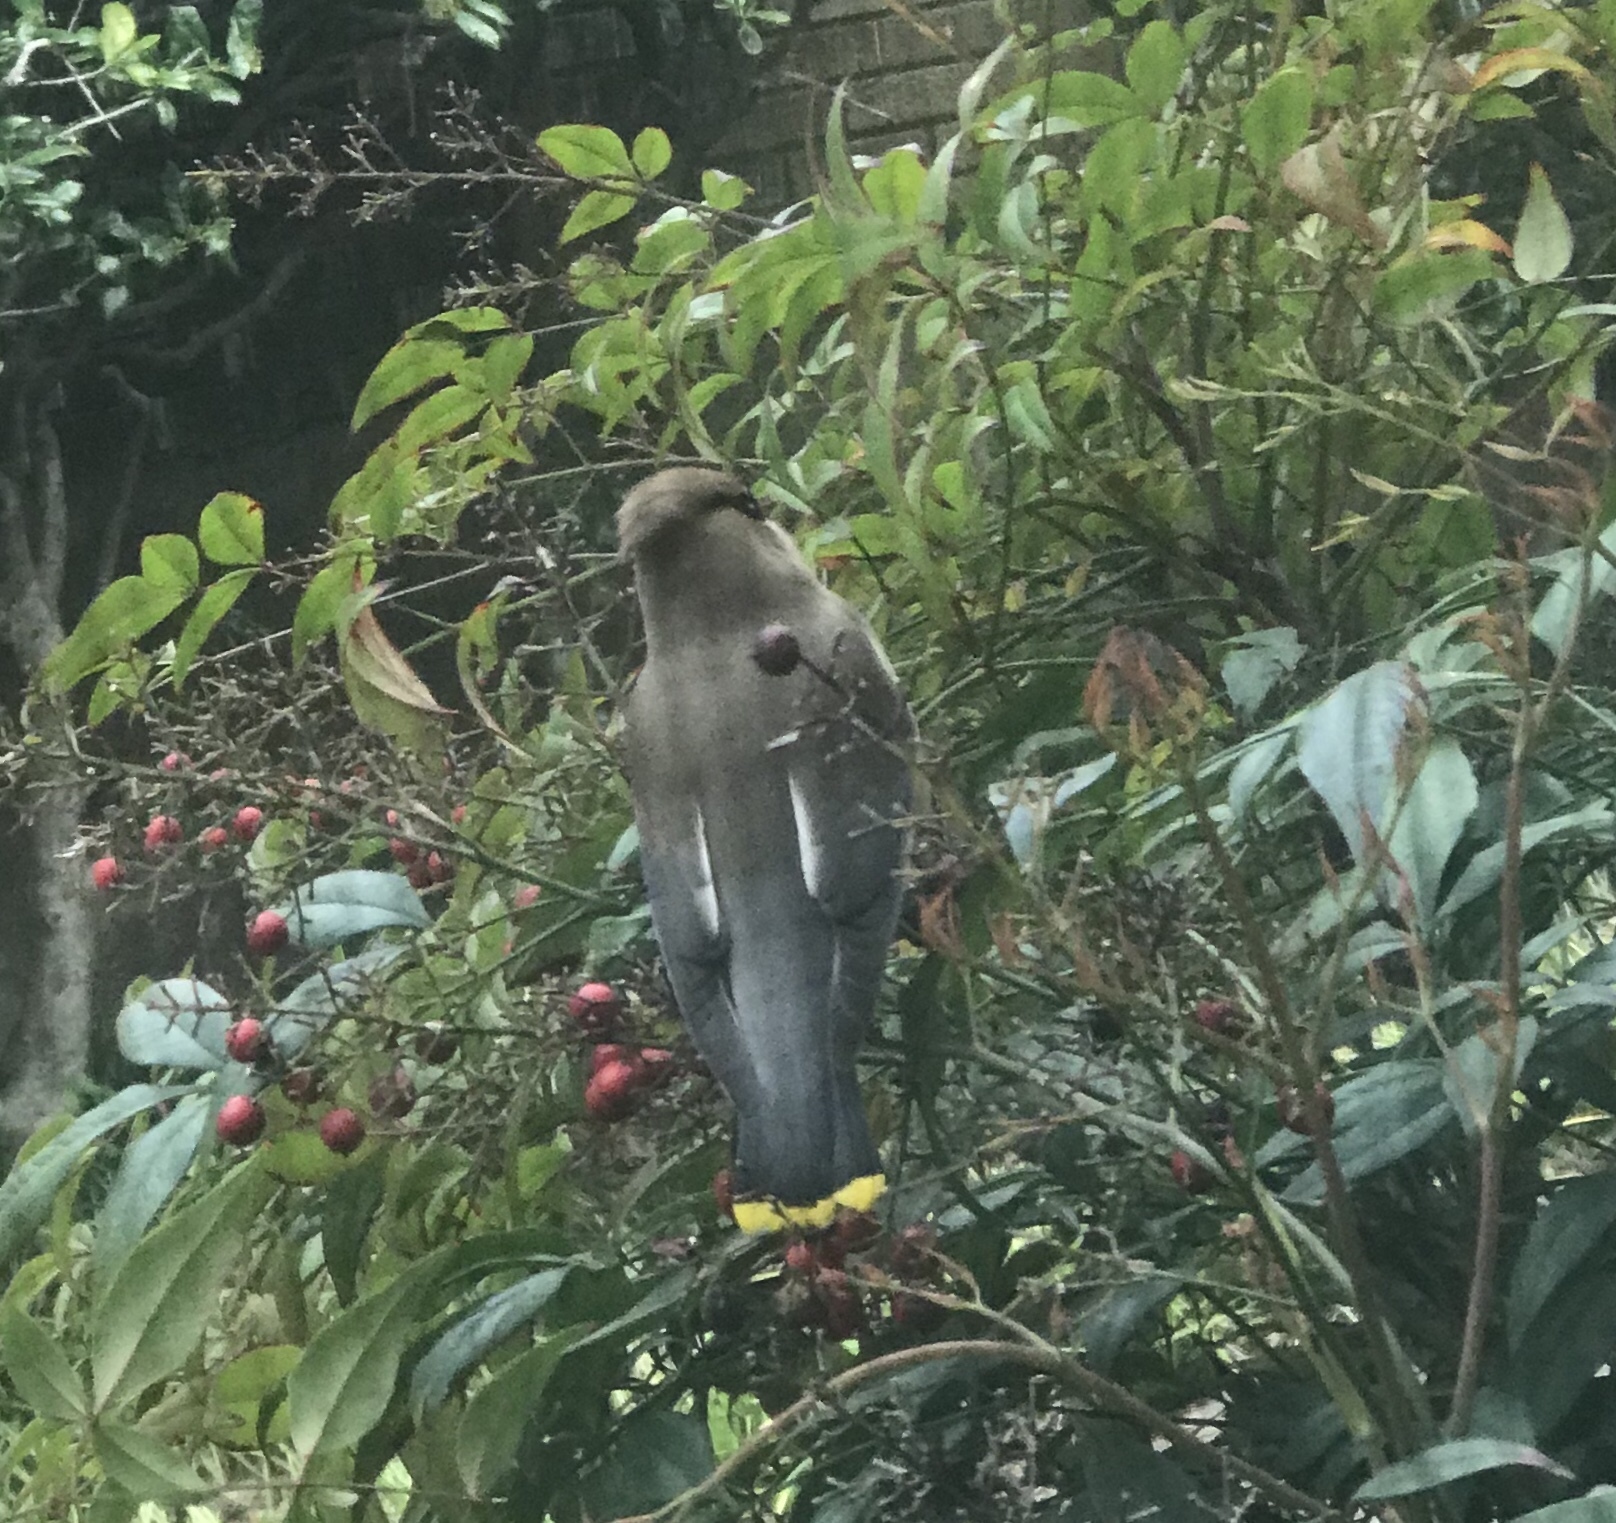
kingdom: Animalia
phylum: Chordata
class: Aves
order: Passeriformes
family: Bombycillidae
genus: Bombycilla
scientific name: Bombycilla cedrorum
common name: Cedar waxwing
